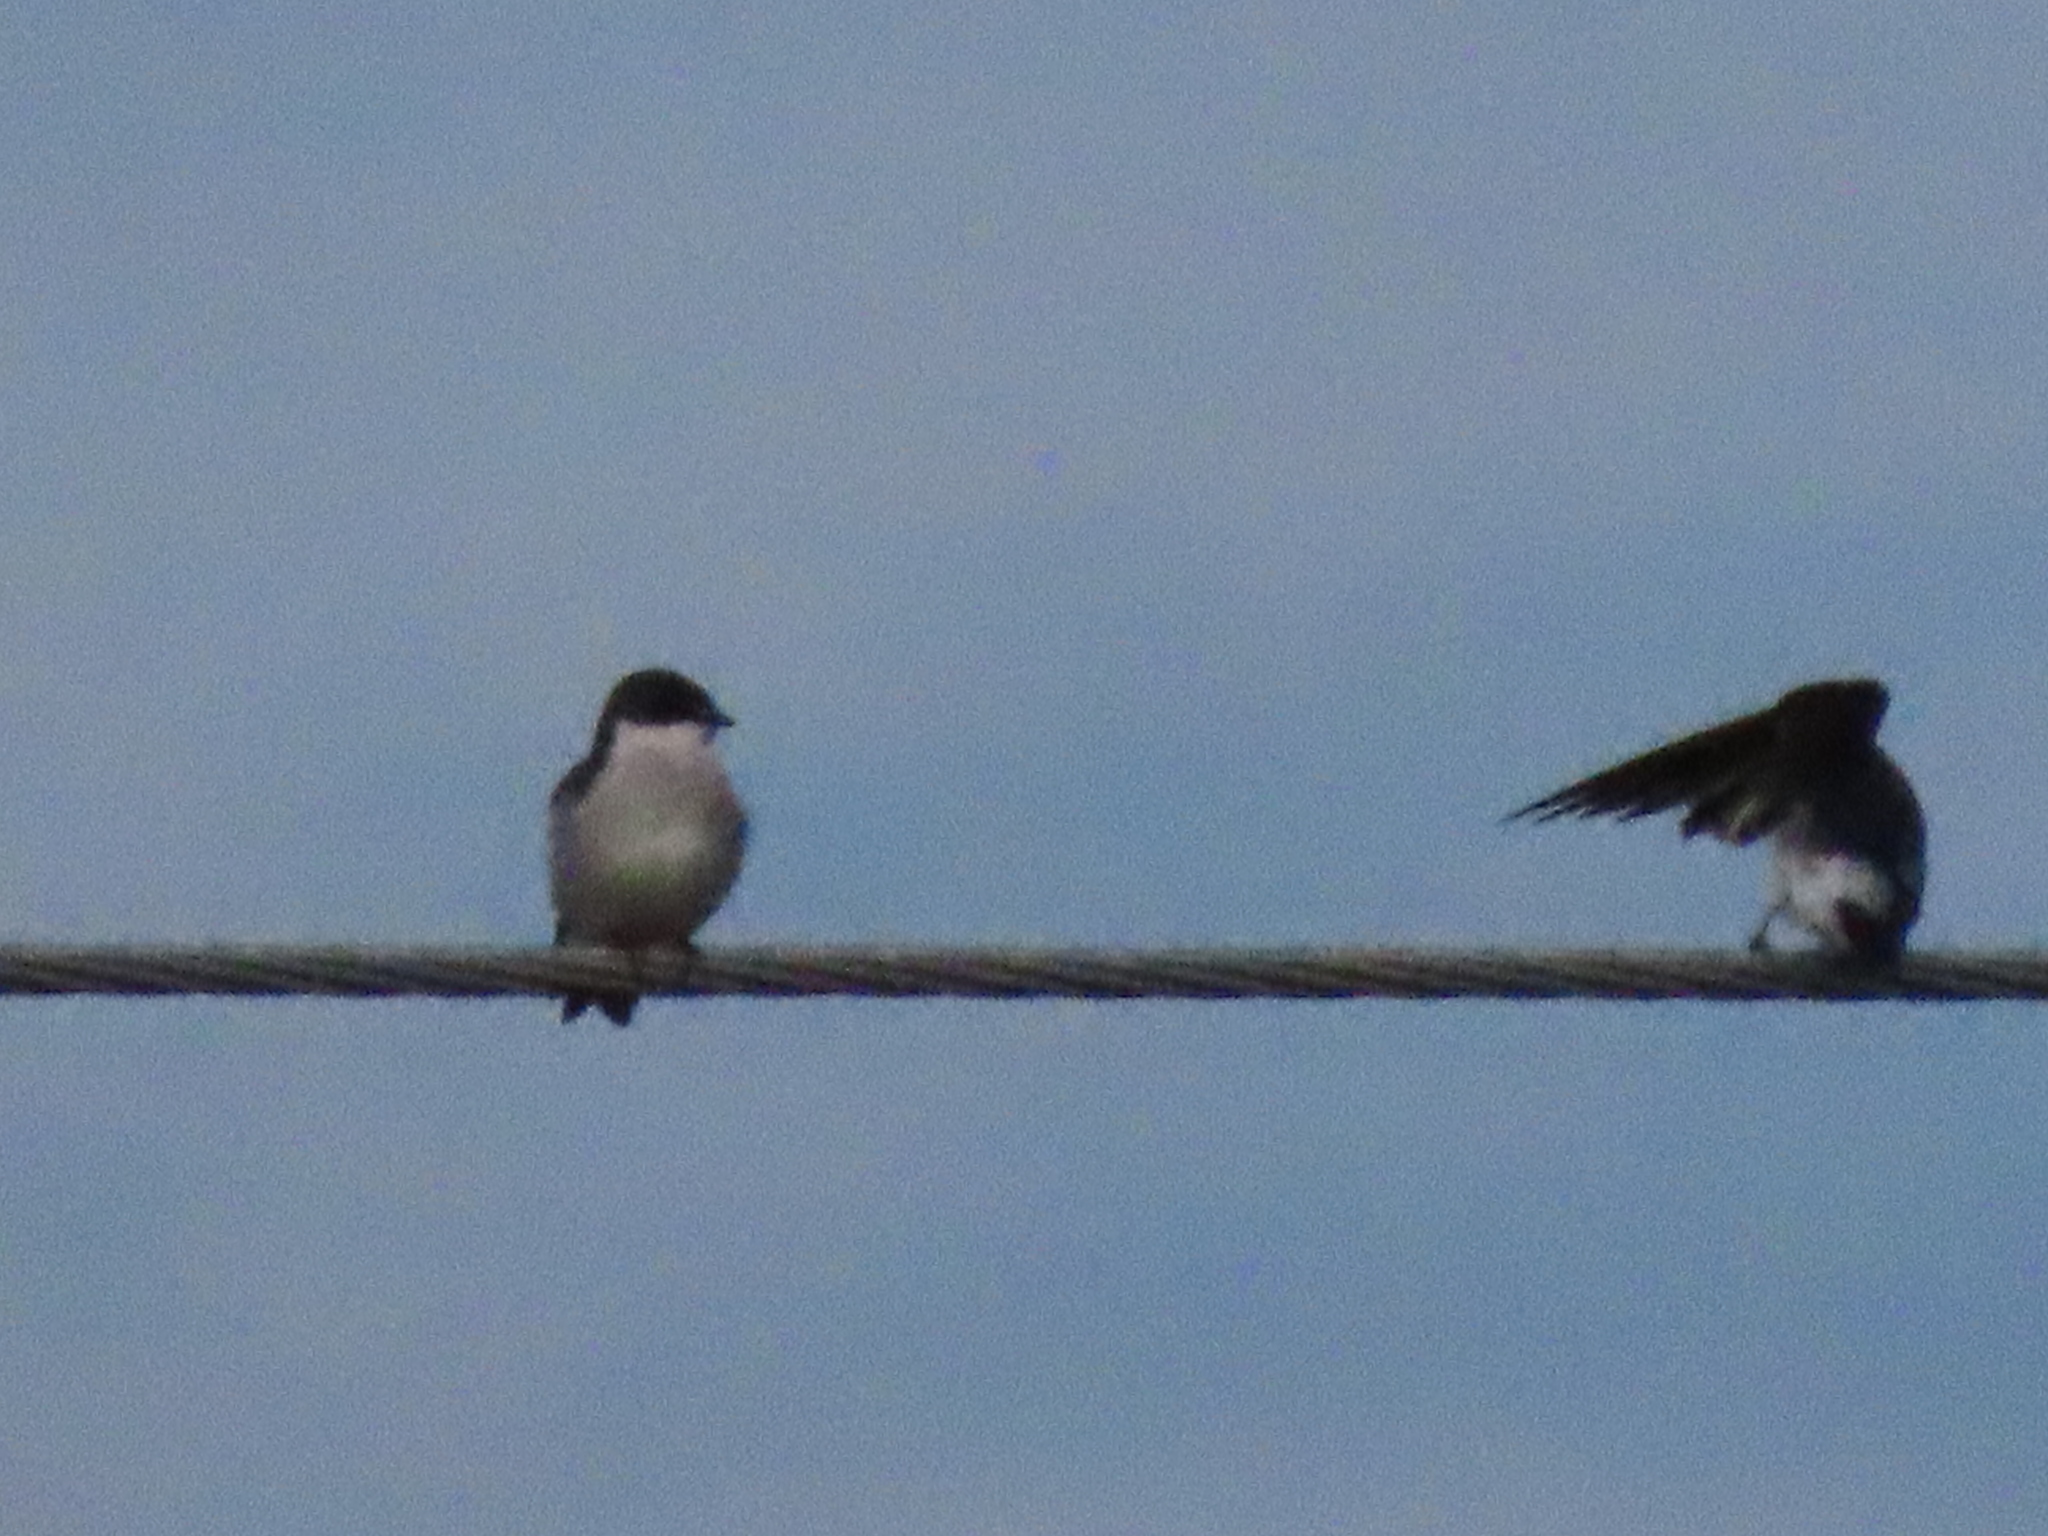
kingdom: Animalia
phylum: Chordata
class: Aves
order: Passeriformes
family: Hirundinidae
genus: Tachycineta
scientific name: Tachycineta albilinea
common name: Mangrove swallow
